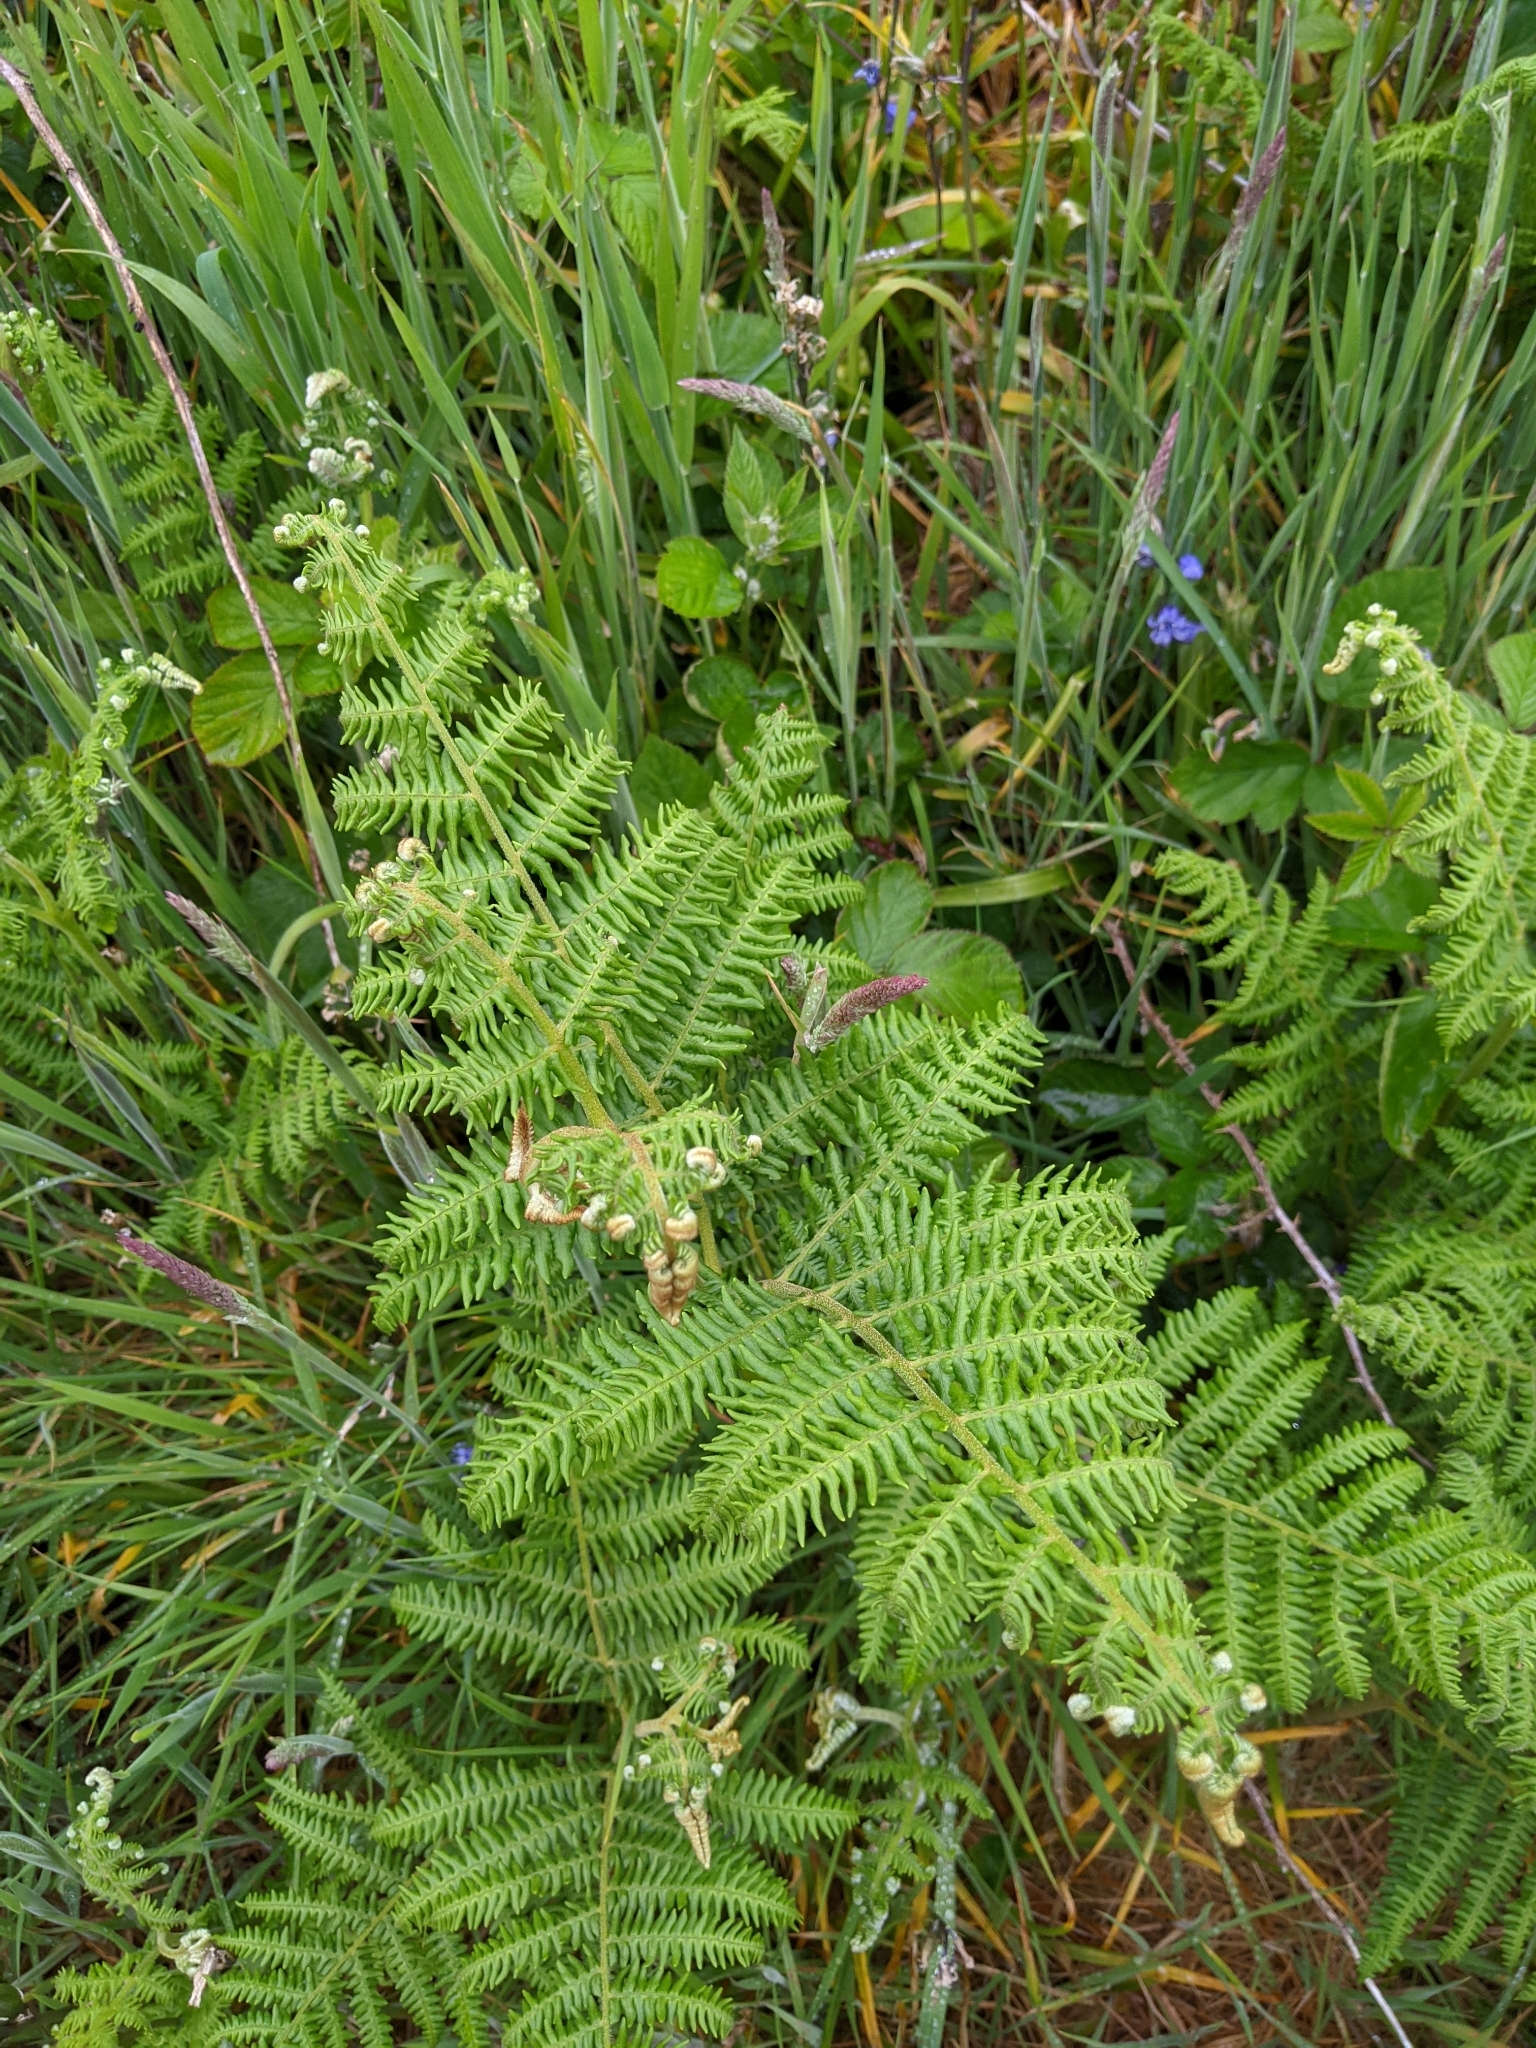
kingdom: Plantae
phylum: Tracheophyta
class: Polypodiopsida
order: Polypodiales
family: Dennstaedtiaceae
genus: Pteridium
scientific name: Pteridium aquilinum
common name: Bracken
